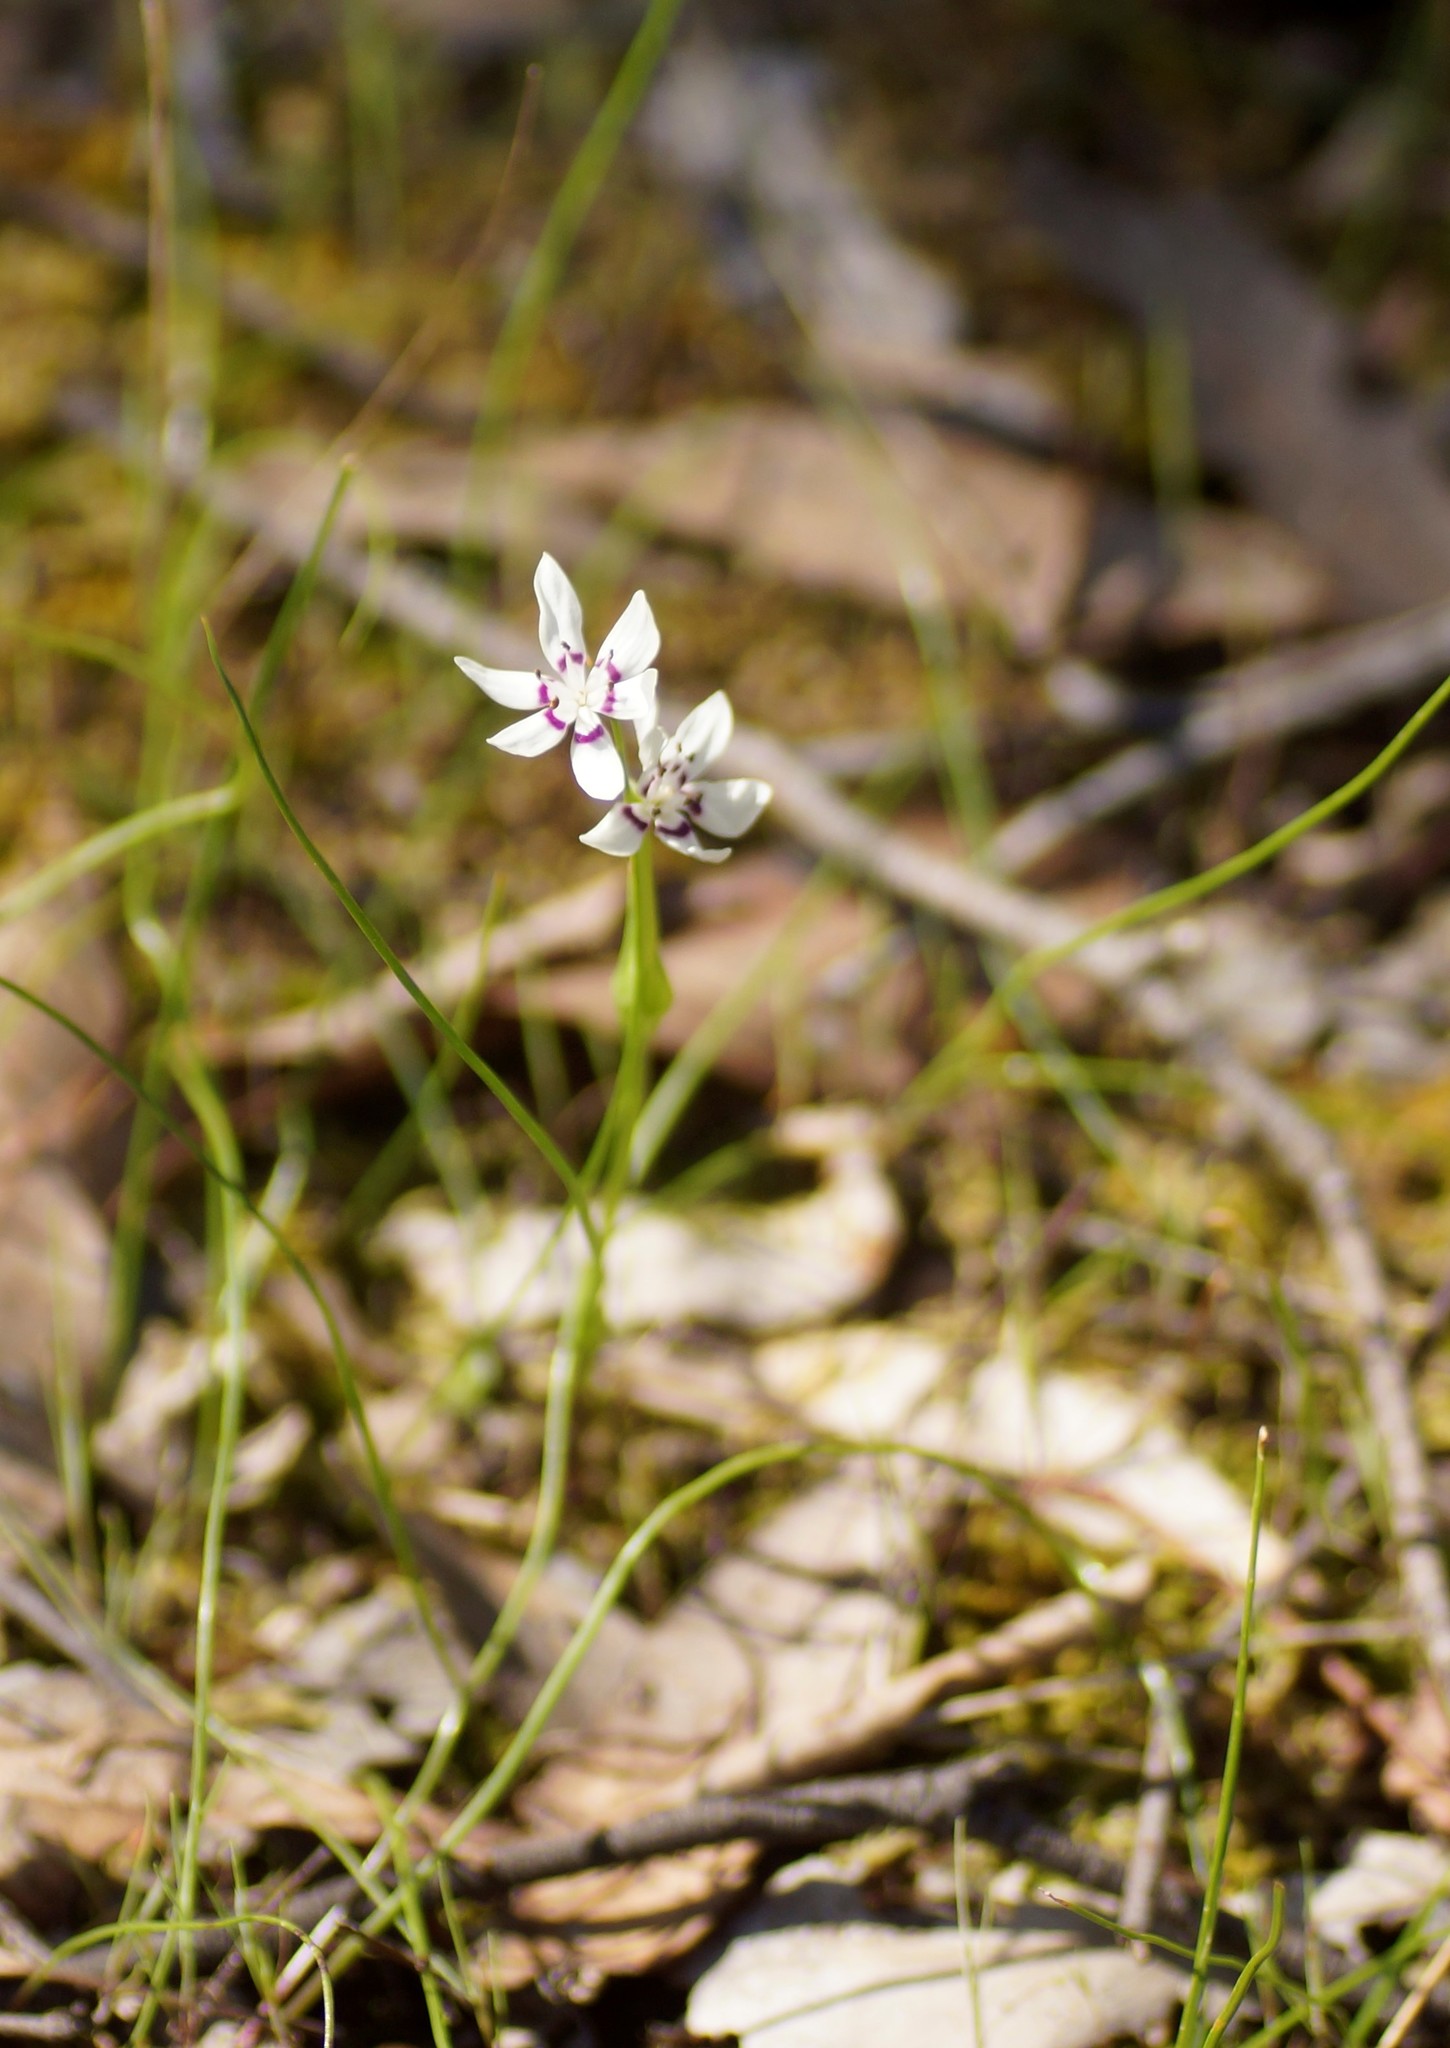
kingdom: Plantae
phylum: Tracheophyta
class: Liliopsida
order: Liliales
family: Colchicaceae
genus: Wurmbea
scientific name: Wurmbea dioica
